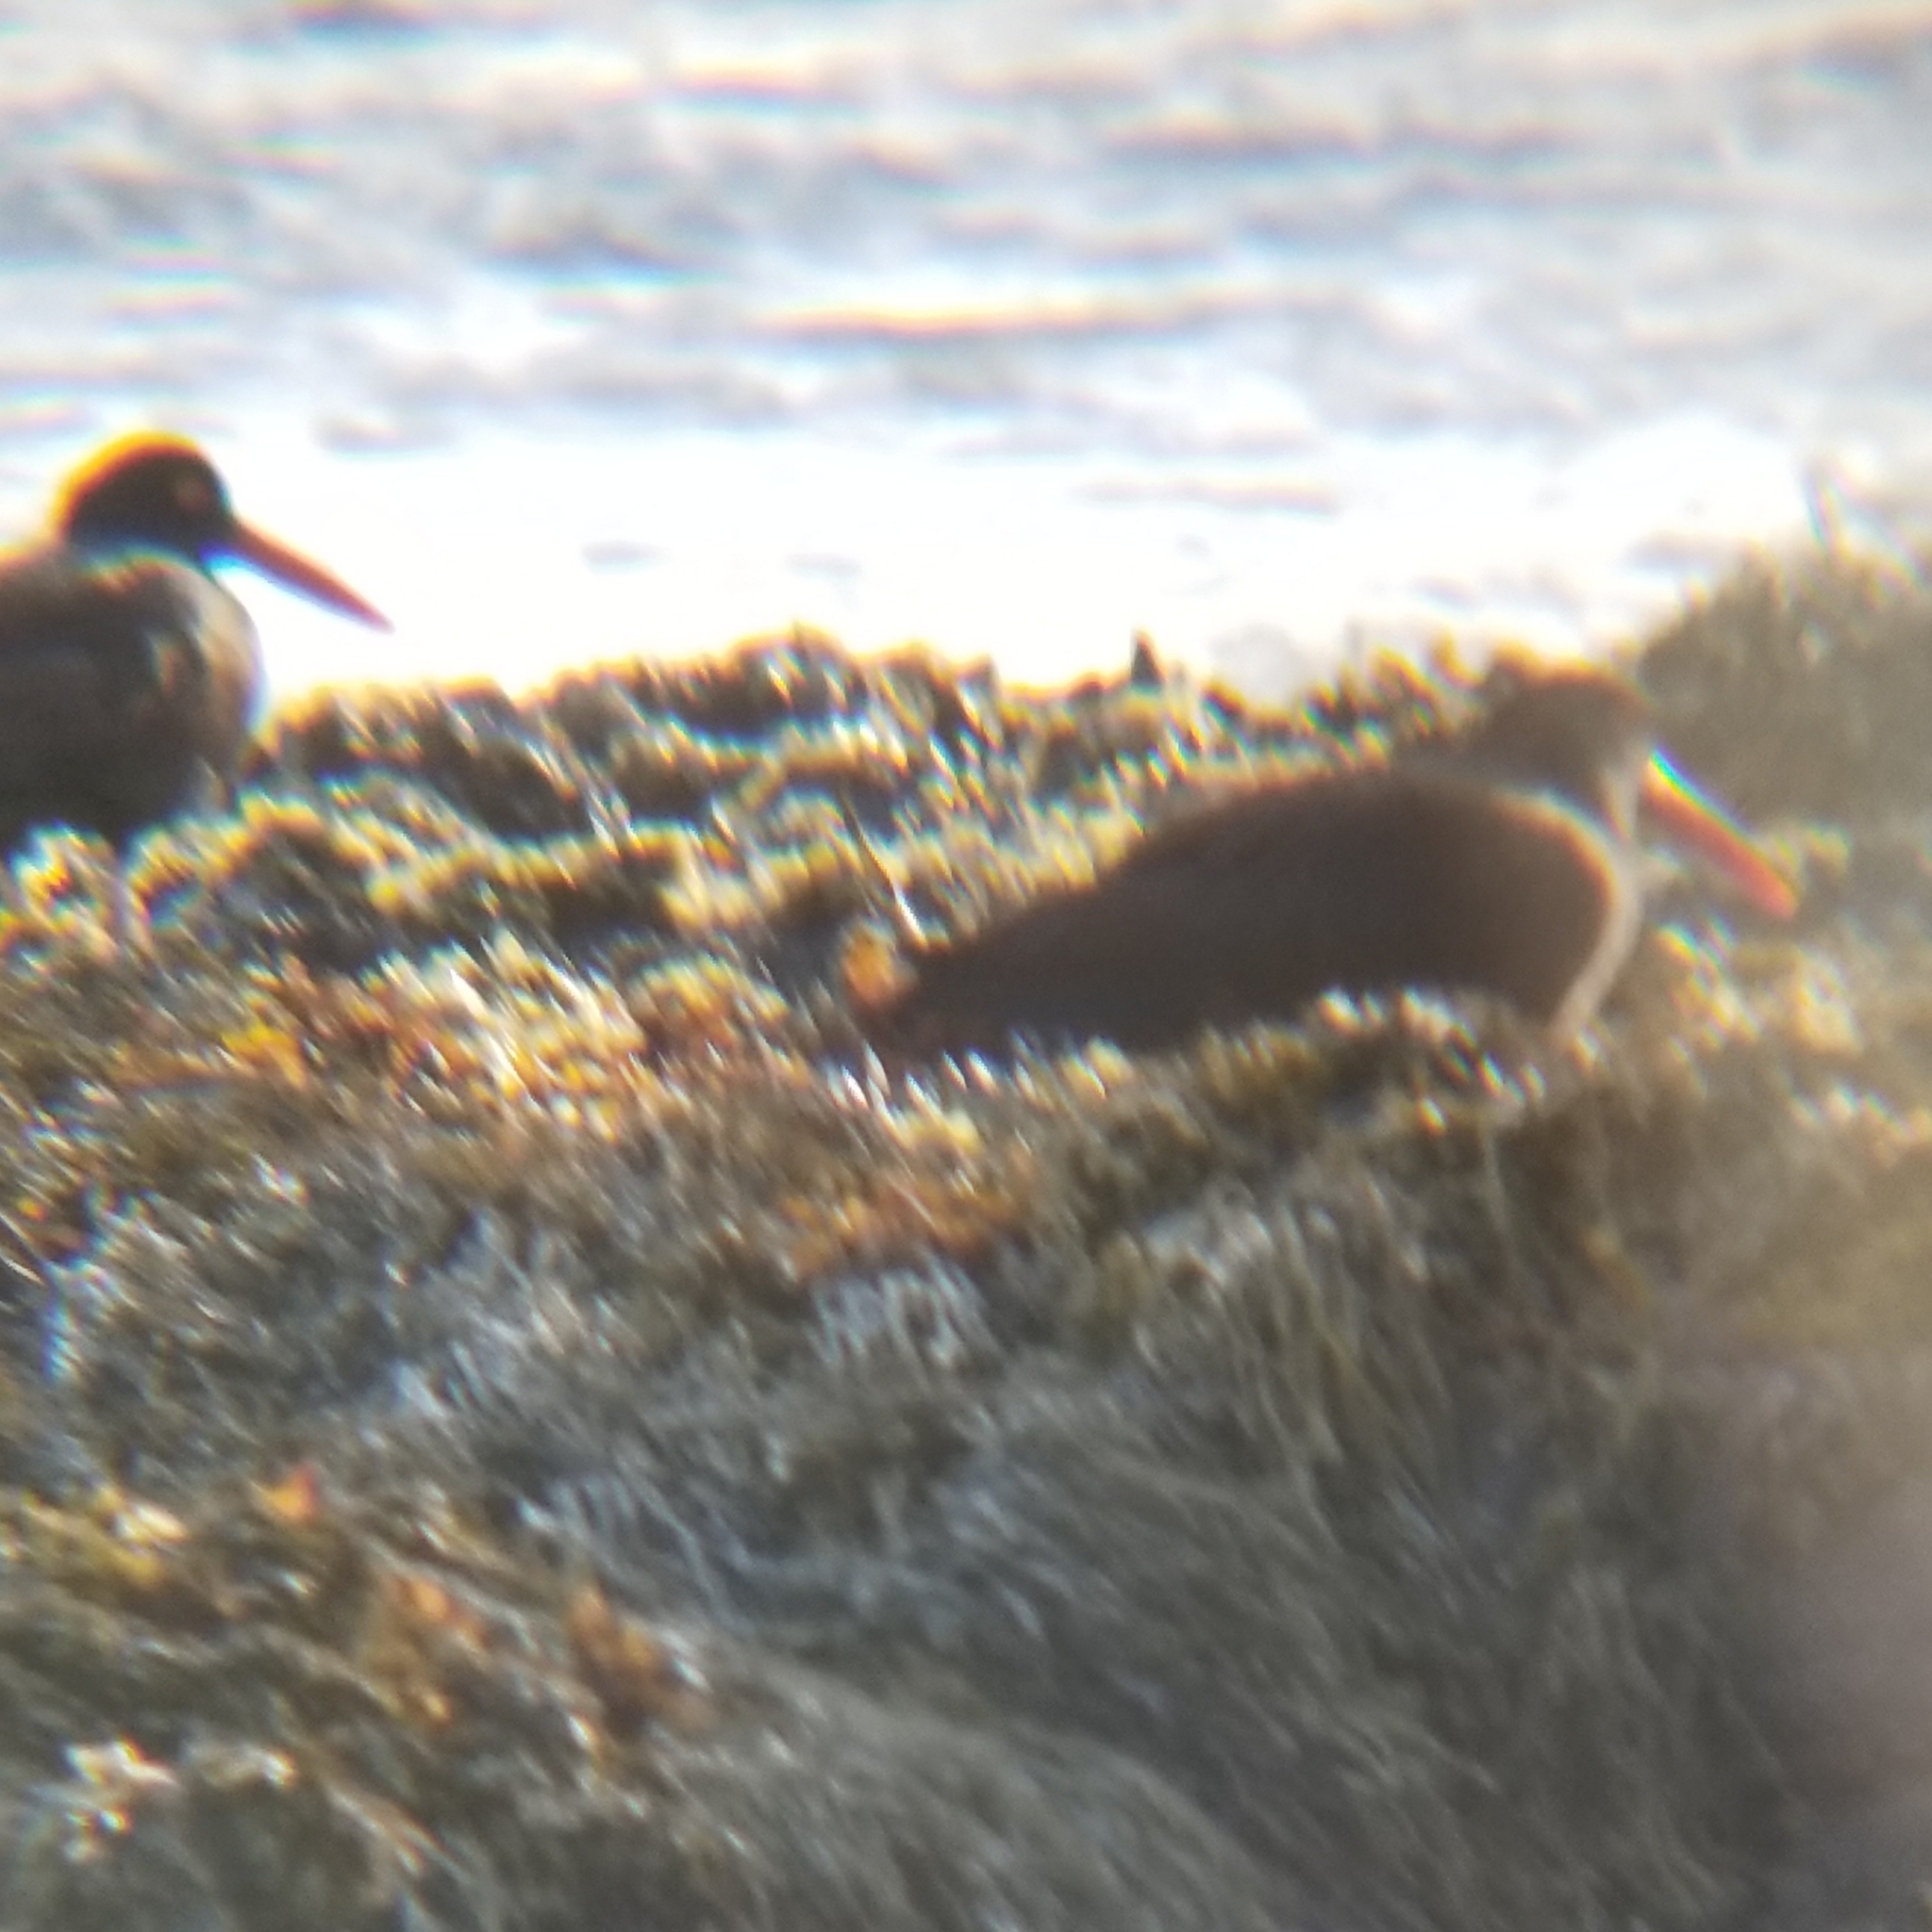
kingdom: Animalia
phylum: Chordata
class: Aves
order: Charadriiformes
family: Haematopodidae
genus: Haematopus
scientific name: Haematopus bachmani
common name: Black oystercatcher
